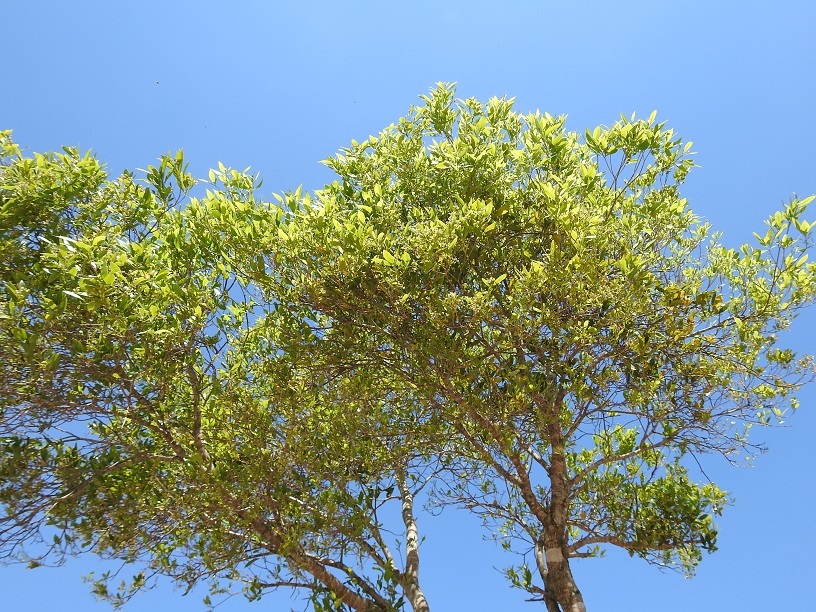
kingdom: Plantae
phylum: Tracheophyta
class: Magnoliopsida
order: Malvales
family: Thymelaeaceae
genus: Daphnopsis
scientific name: Daphnopsis americana
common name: Maho
